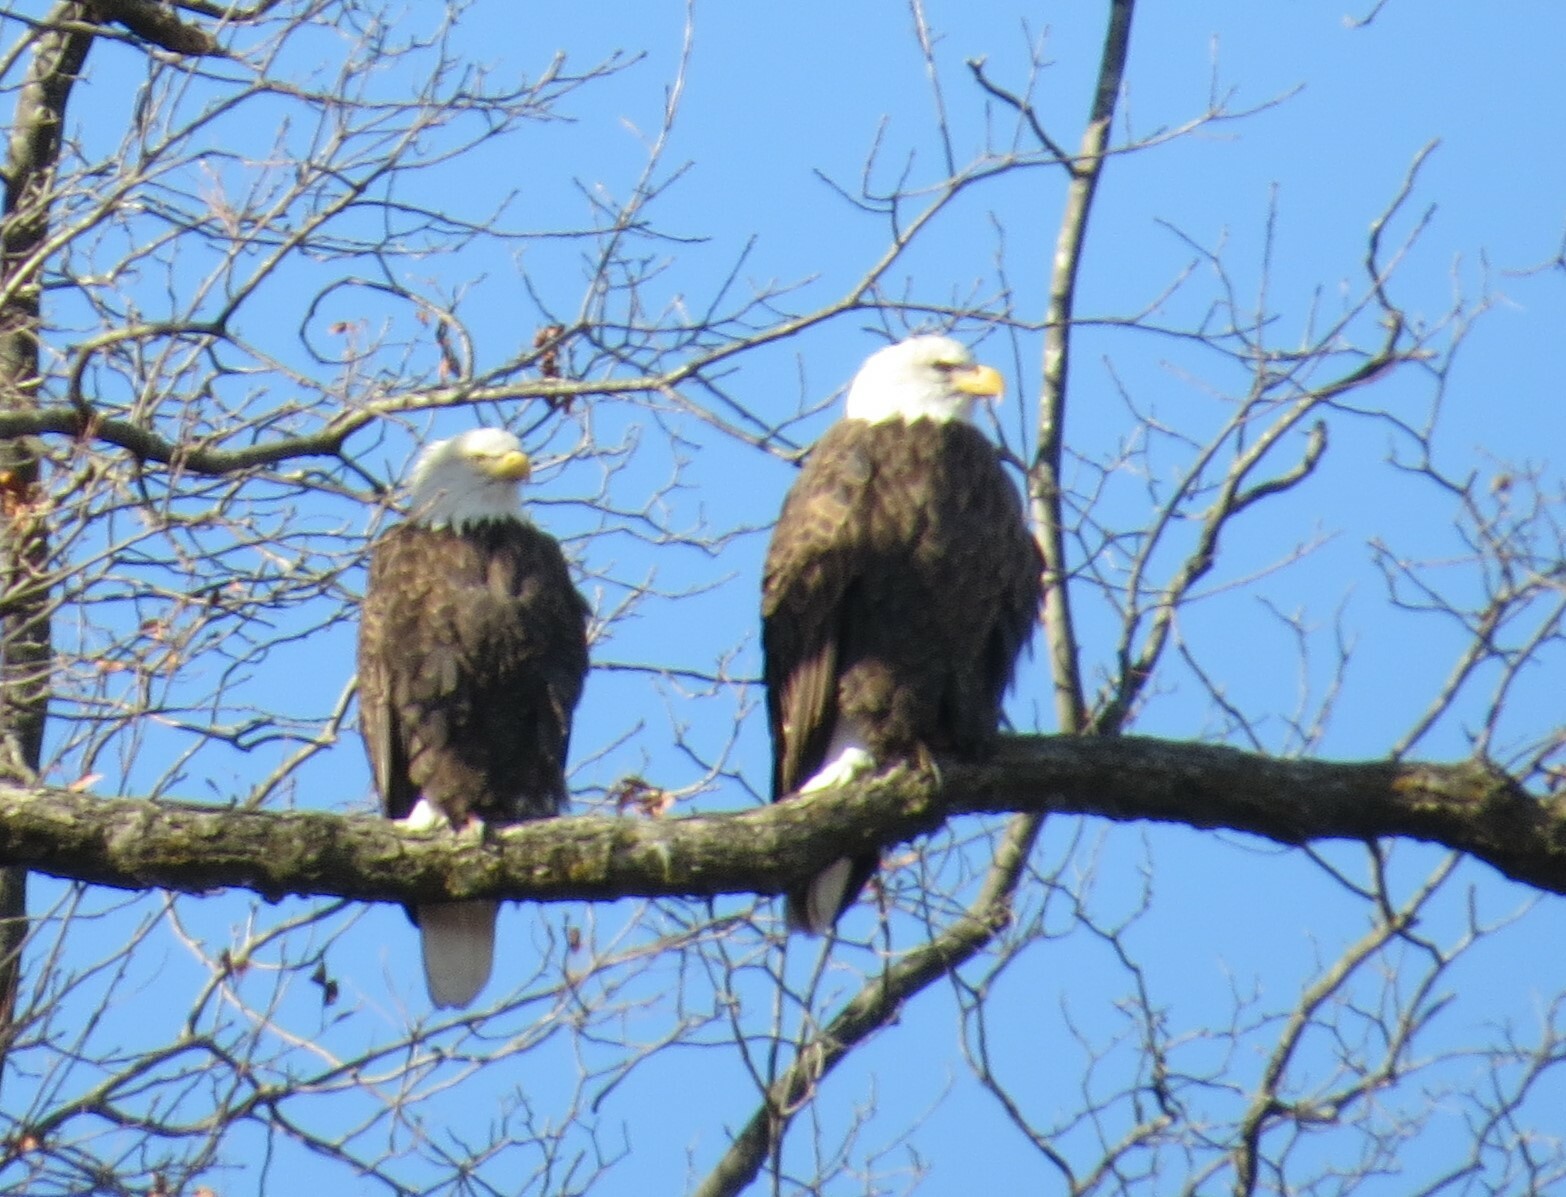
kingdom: Animalia
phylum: Chordata
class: Aves
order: Accipitriformes
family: Accipitridae
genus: Haliaeetus
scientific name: Haliaeetus leucocephalus
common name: Bald eagle
